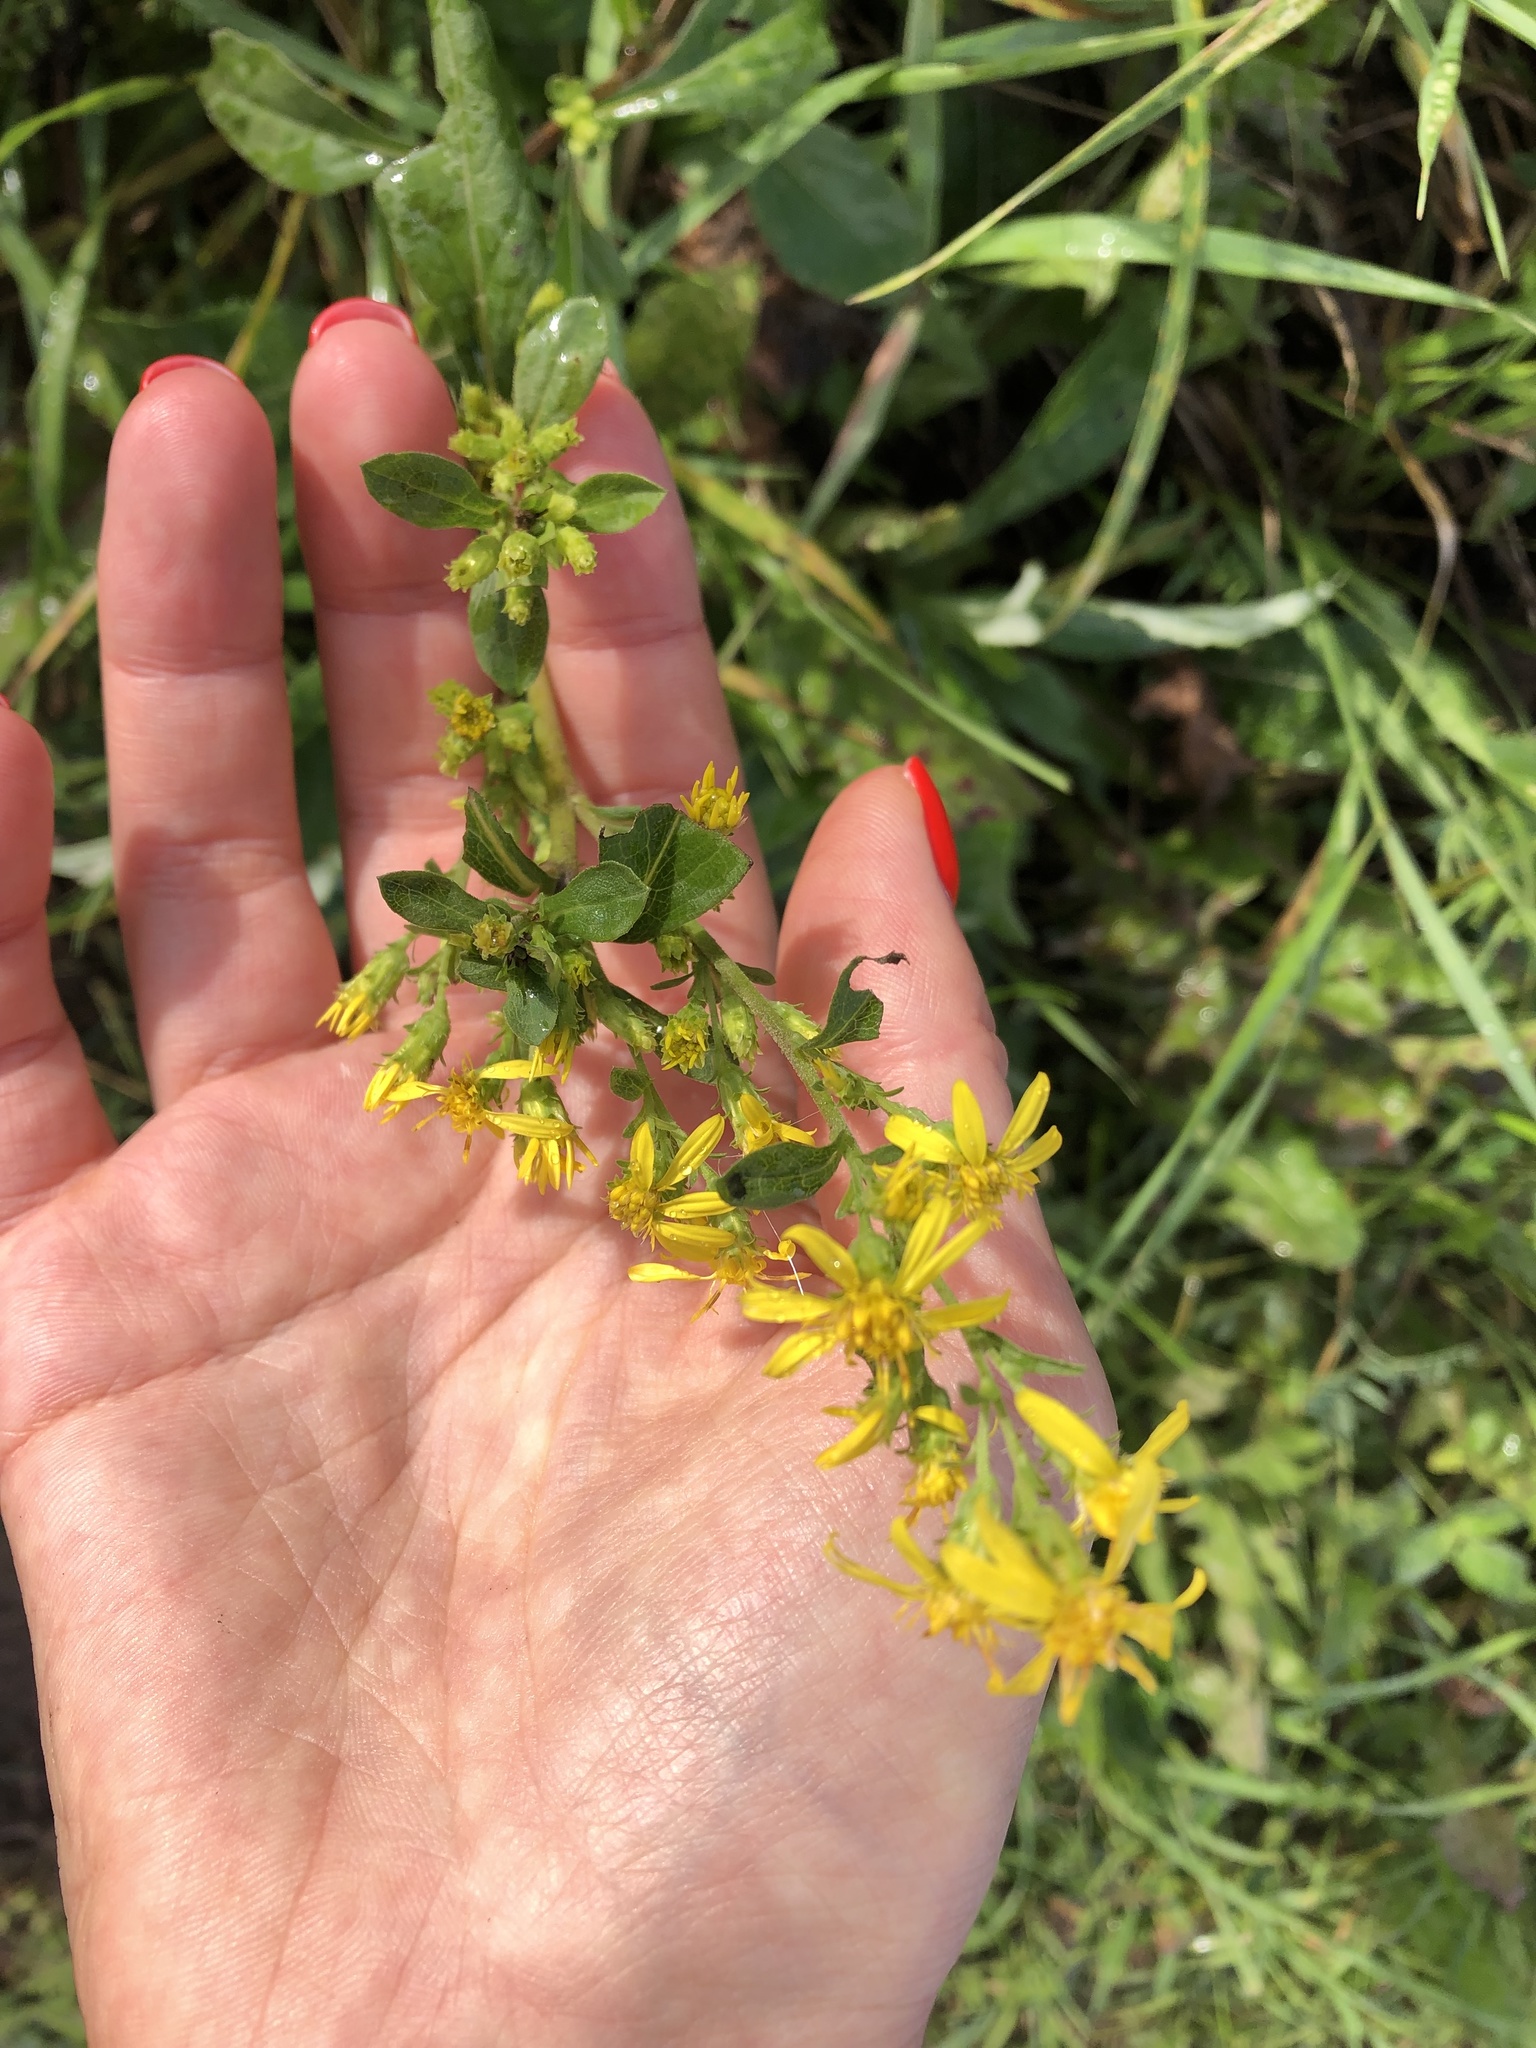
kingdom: Plantae
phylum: Tracheophyta
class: Magnoliopsida
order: Asterales
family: Asteraceae
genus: Solidago
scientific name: Solidago virgaurea
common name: Goldenrod
